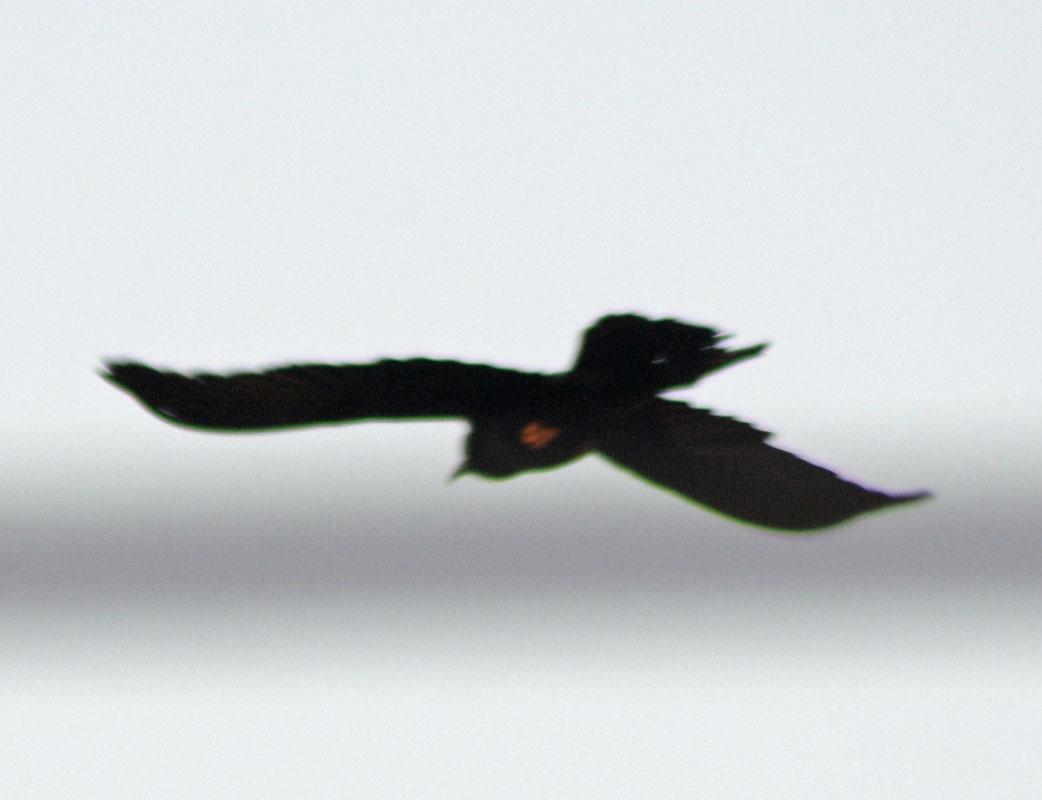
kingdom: Animalia
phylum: Chordata
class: Aves
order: Passeriformes
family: Icteridae
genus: Quiscalus
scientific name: Quiscalus mexicanus
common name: Great-tailed grackle
